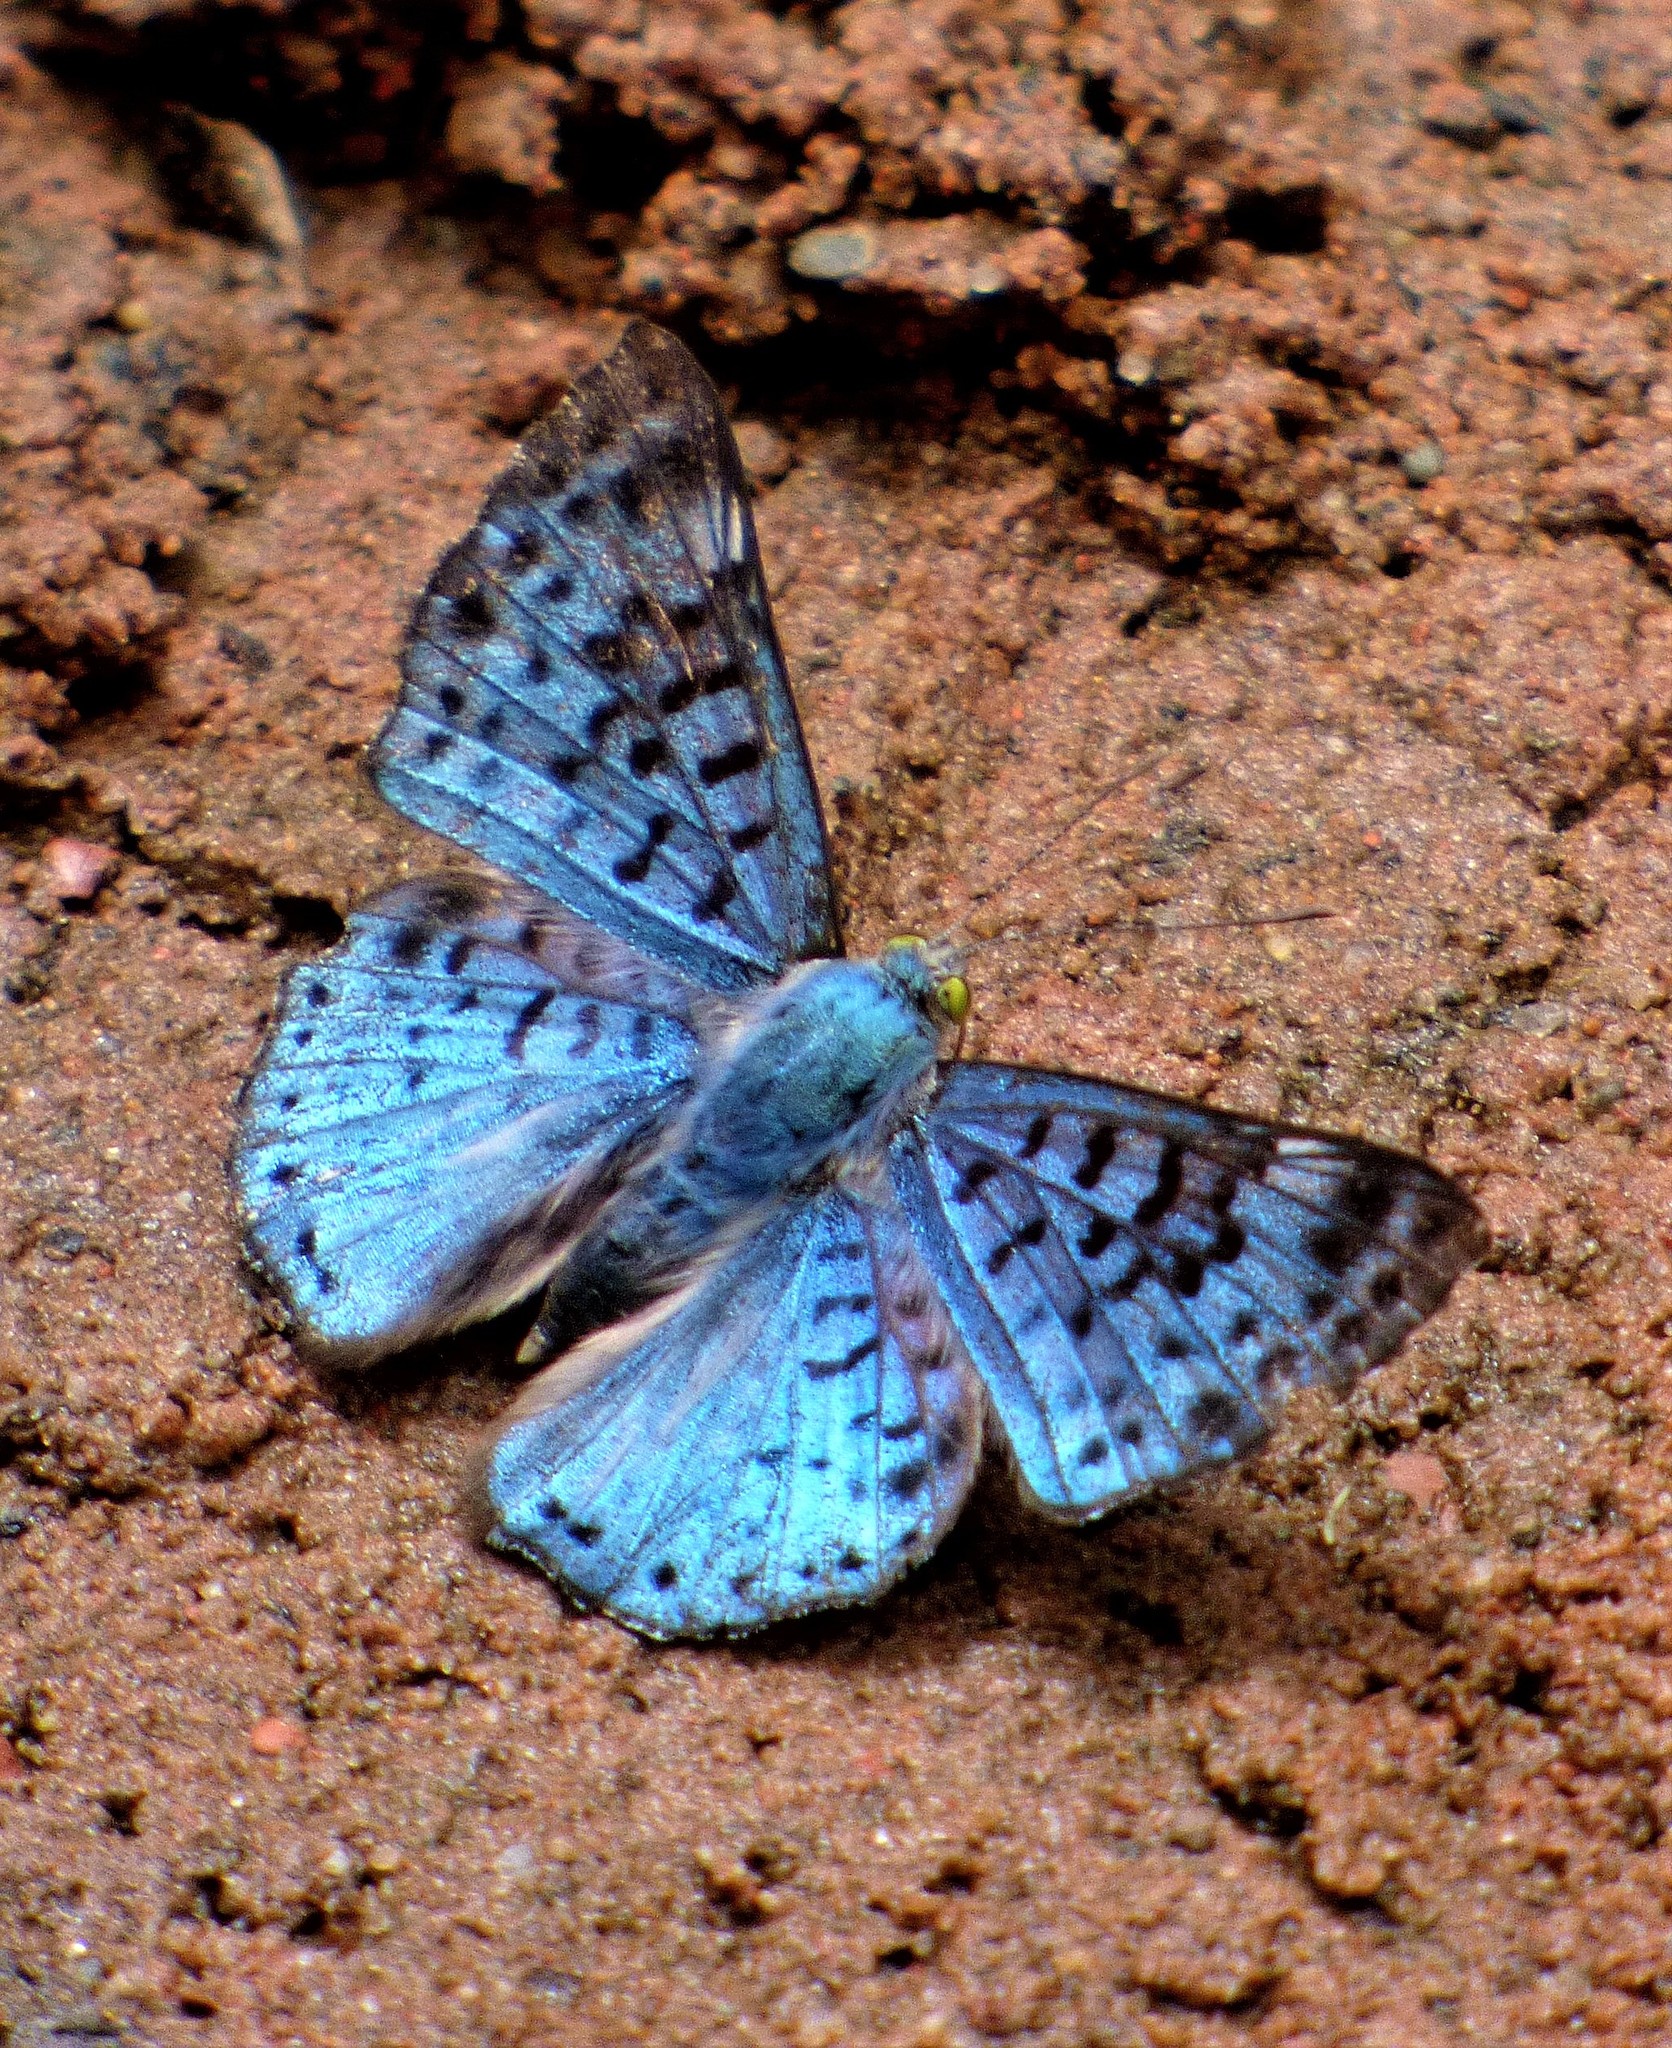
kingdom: Animalia
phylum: Arthropoda
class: Insecta
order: Lepidoptera
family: Riodinidae
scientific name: Riodinidae
